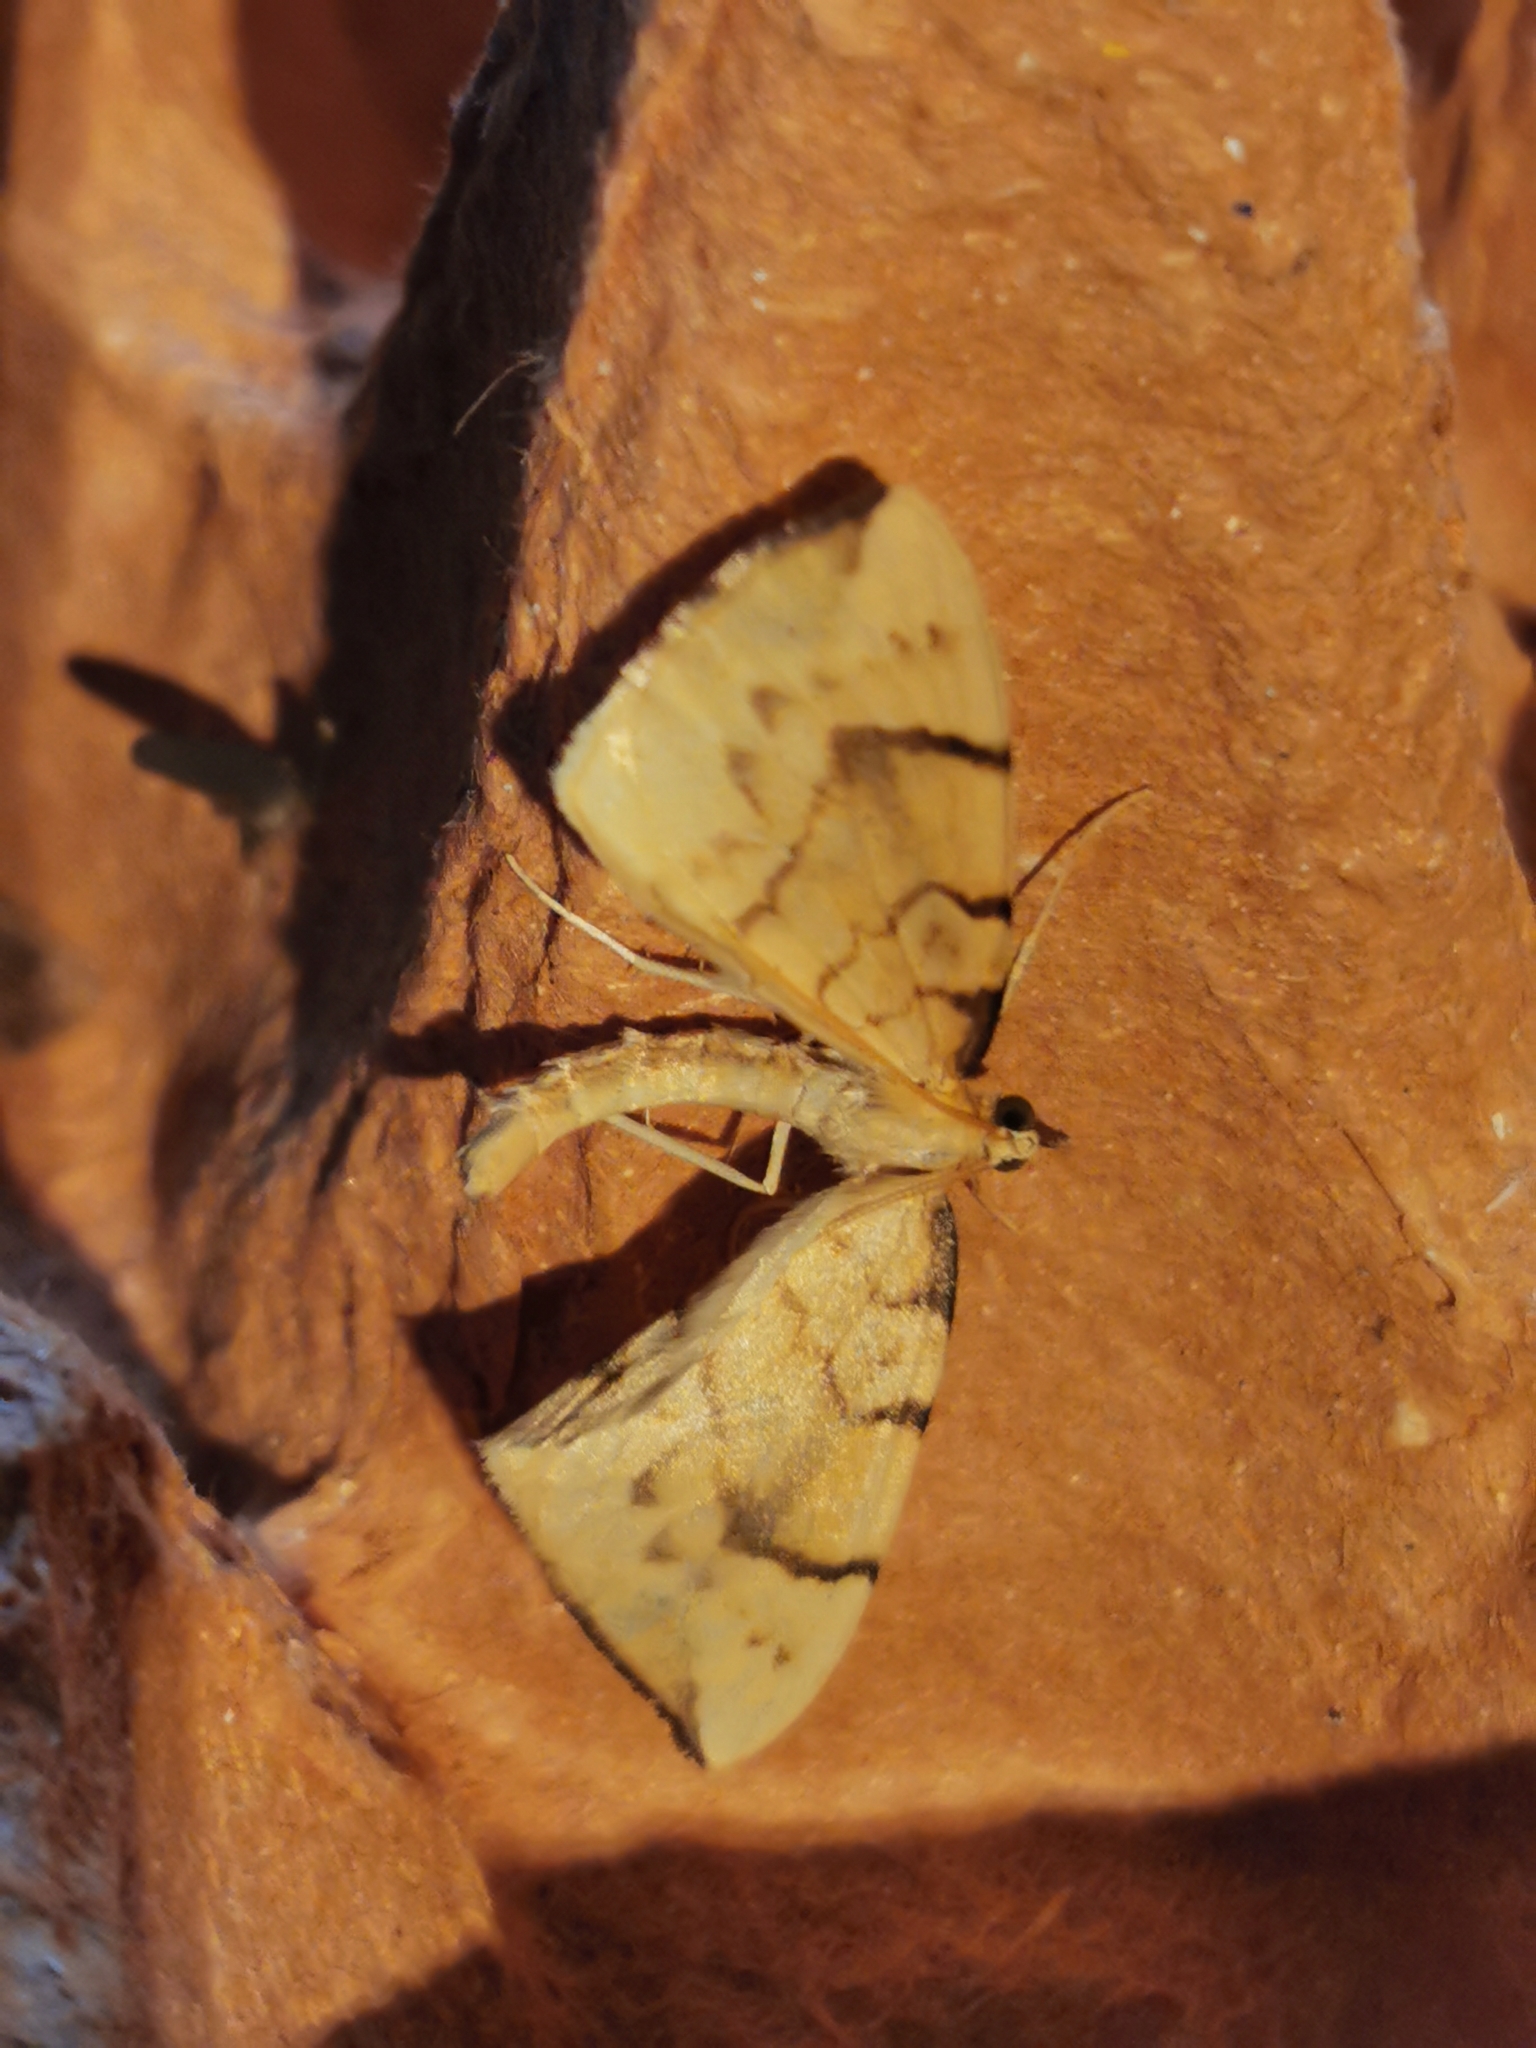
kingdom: Animalia
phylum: Arthropoda
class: Insecta
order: Lepidoptera
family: Geometridae
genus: Eulithis
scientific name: Eulithis pyraliata
